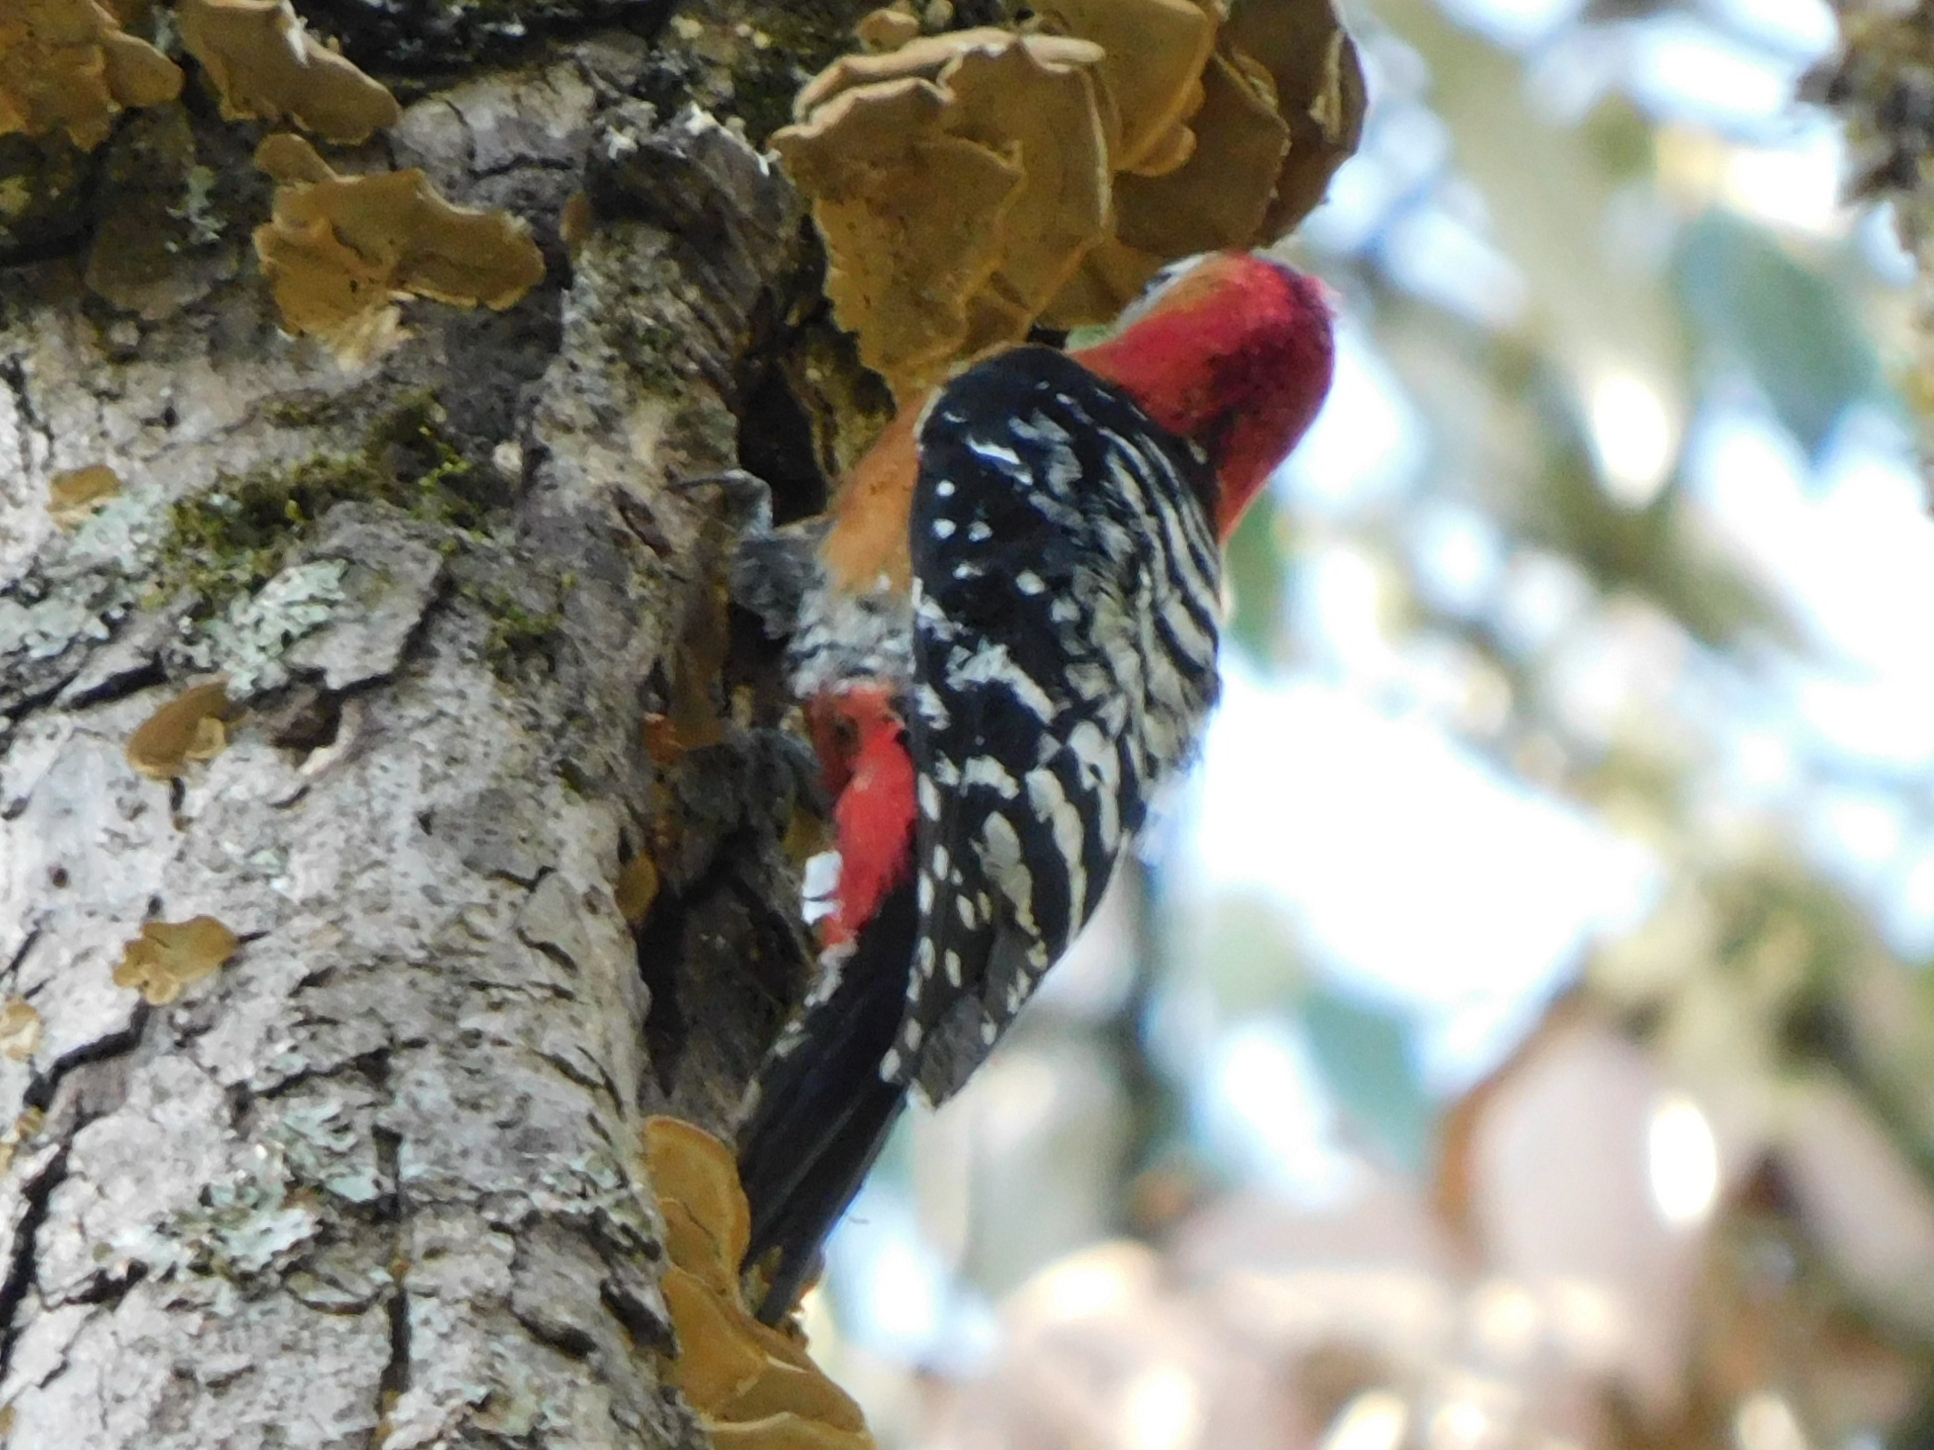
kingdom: Animalia
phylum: Chordata
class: Aves
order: Piciformes
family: Picidae
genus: Dendrocopos
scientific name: Dendrocopos hyperythrus
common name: Rufous-bellied woodpecker
